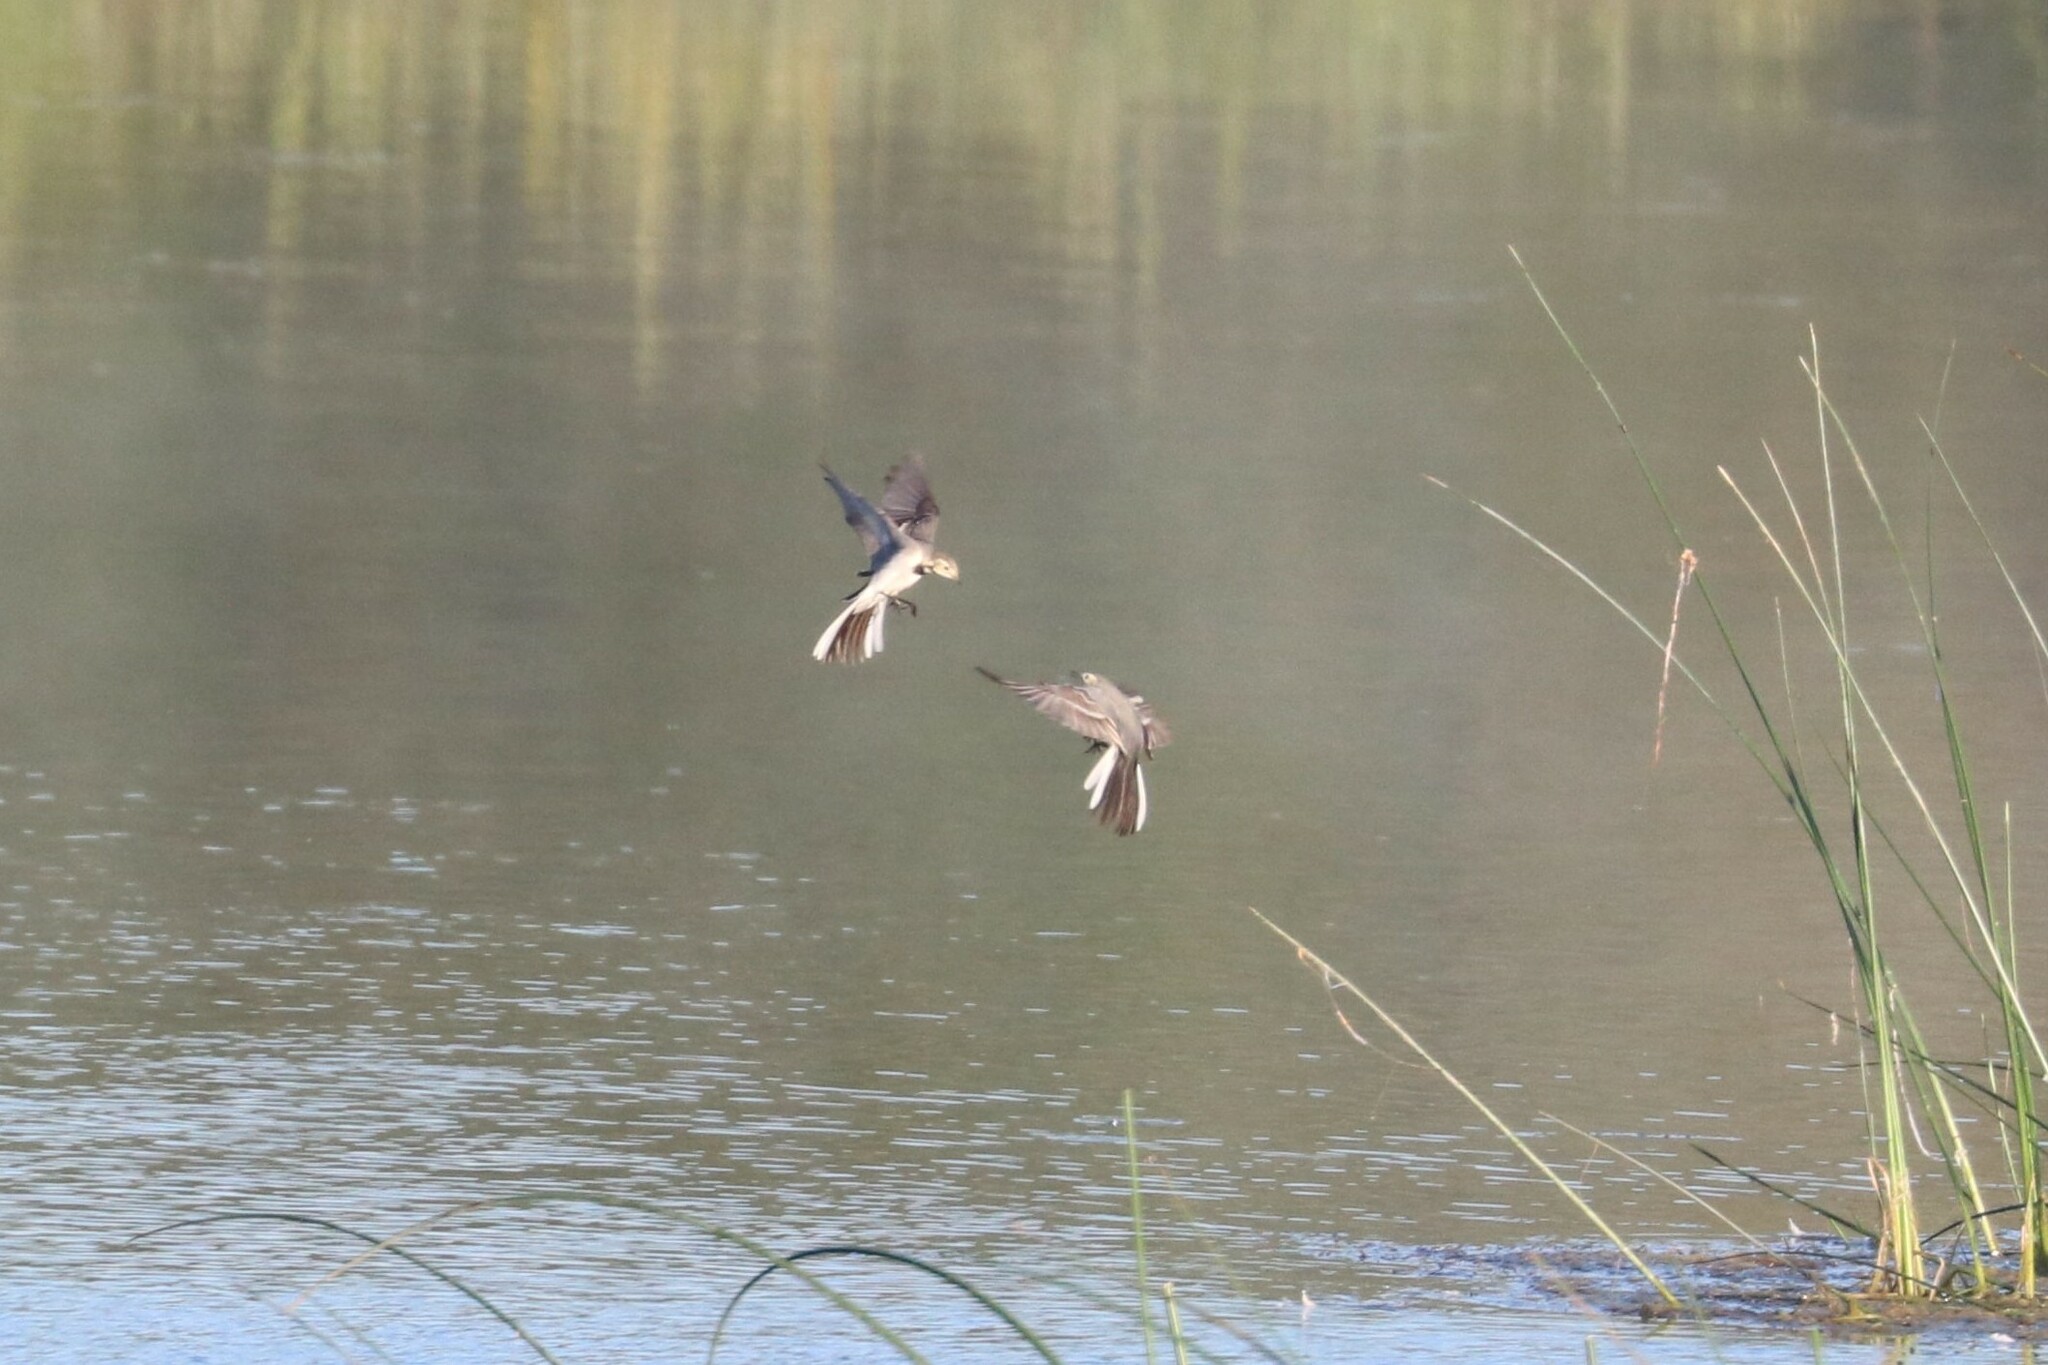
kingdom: Animalia
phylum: Chordata
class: Aves
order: Passeriformes
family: Motacillidae
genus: Motacilla
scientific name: Motacilla alba
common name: White wagtail
